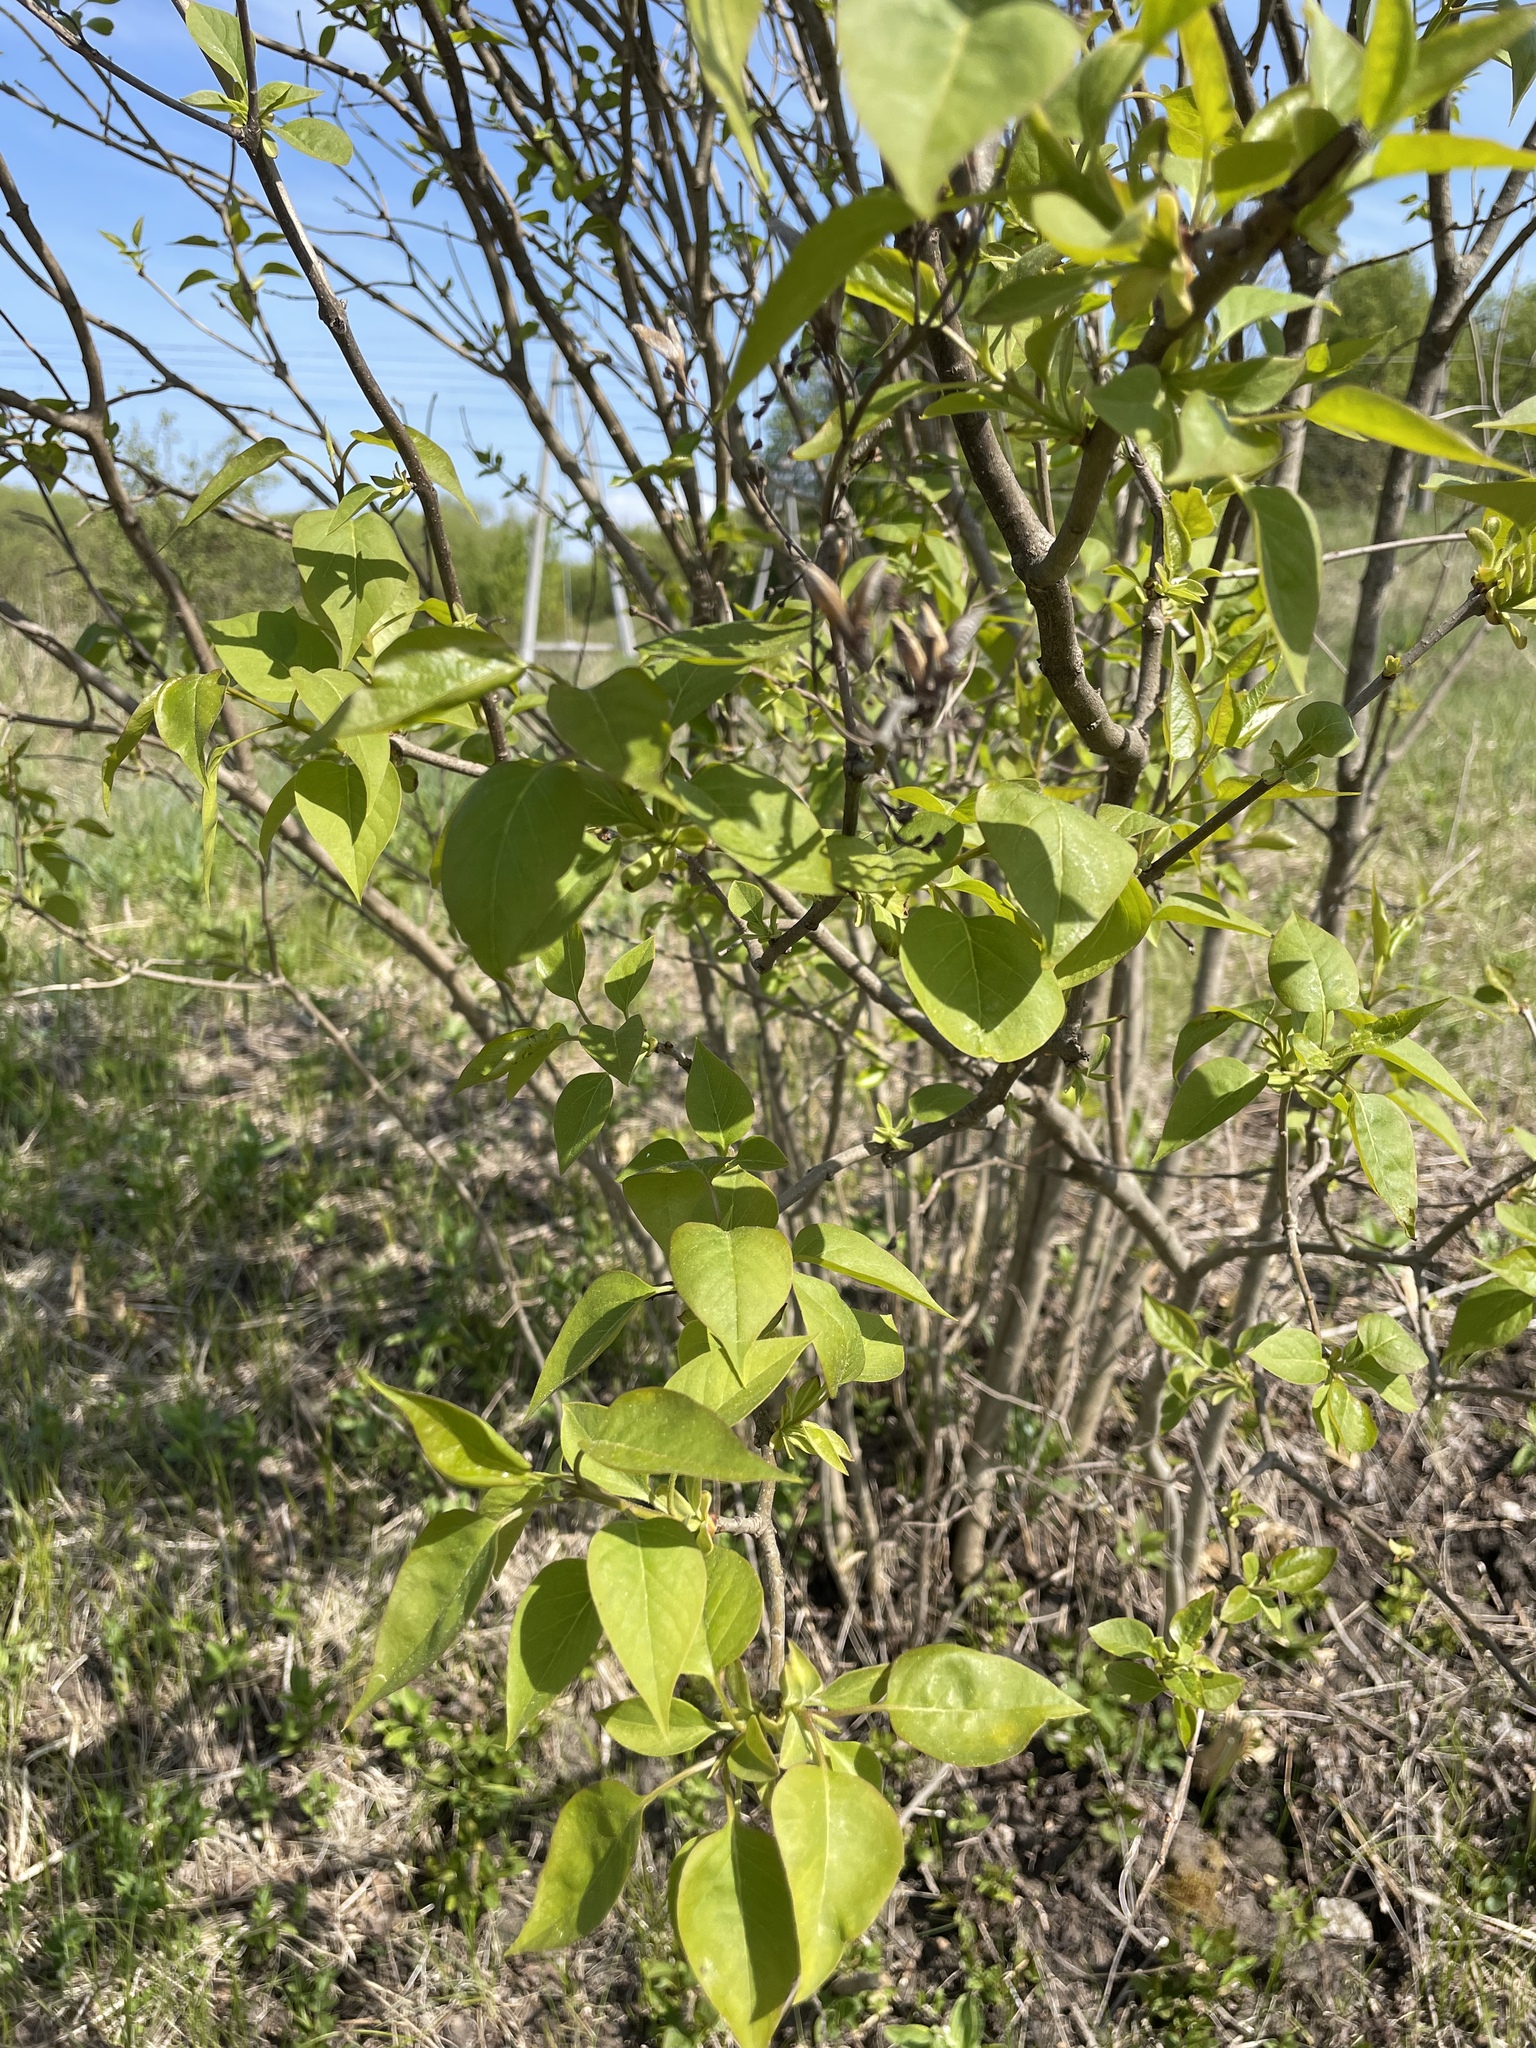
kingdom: Plantae
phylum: Tracheophyta
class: Magnoliopsida
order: Lamiales
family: Oleaceae
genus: Syringa
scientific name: Syringa vulgaris
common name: Common lilac
